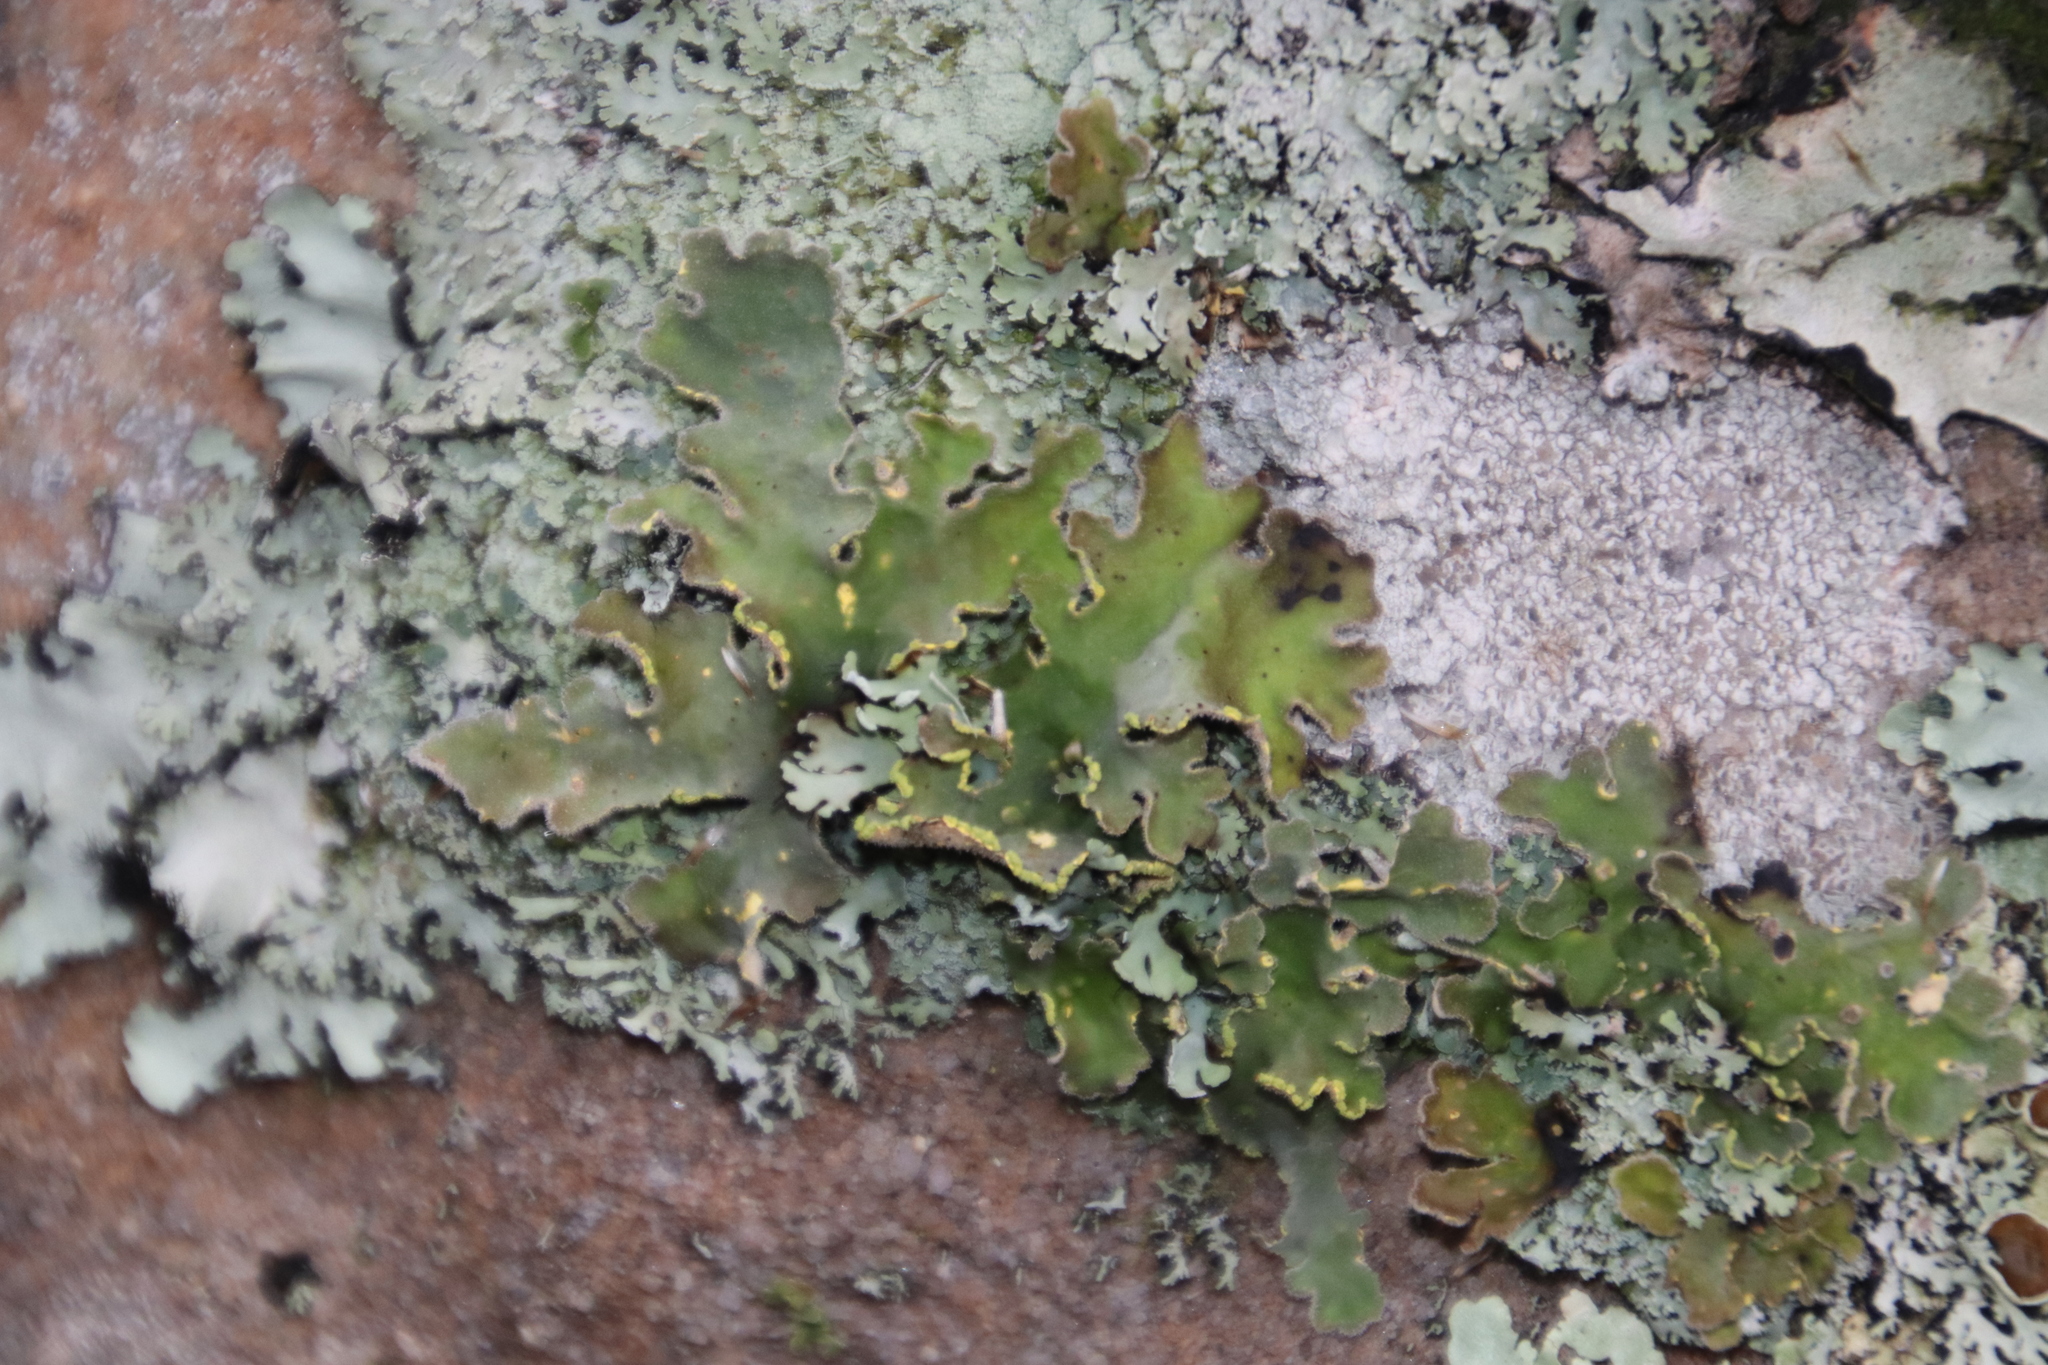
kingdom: Fungi
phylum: Ascomycota
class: Lecanoromycetes
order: Peltigerales
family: Lobariaceae
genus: Pseudocyphellaria
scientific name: Pseudocyphellaria aurata
